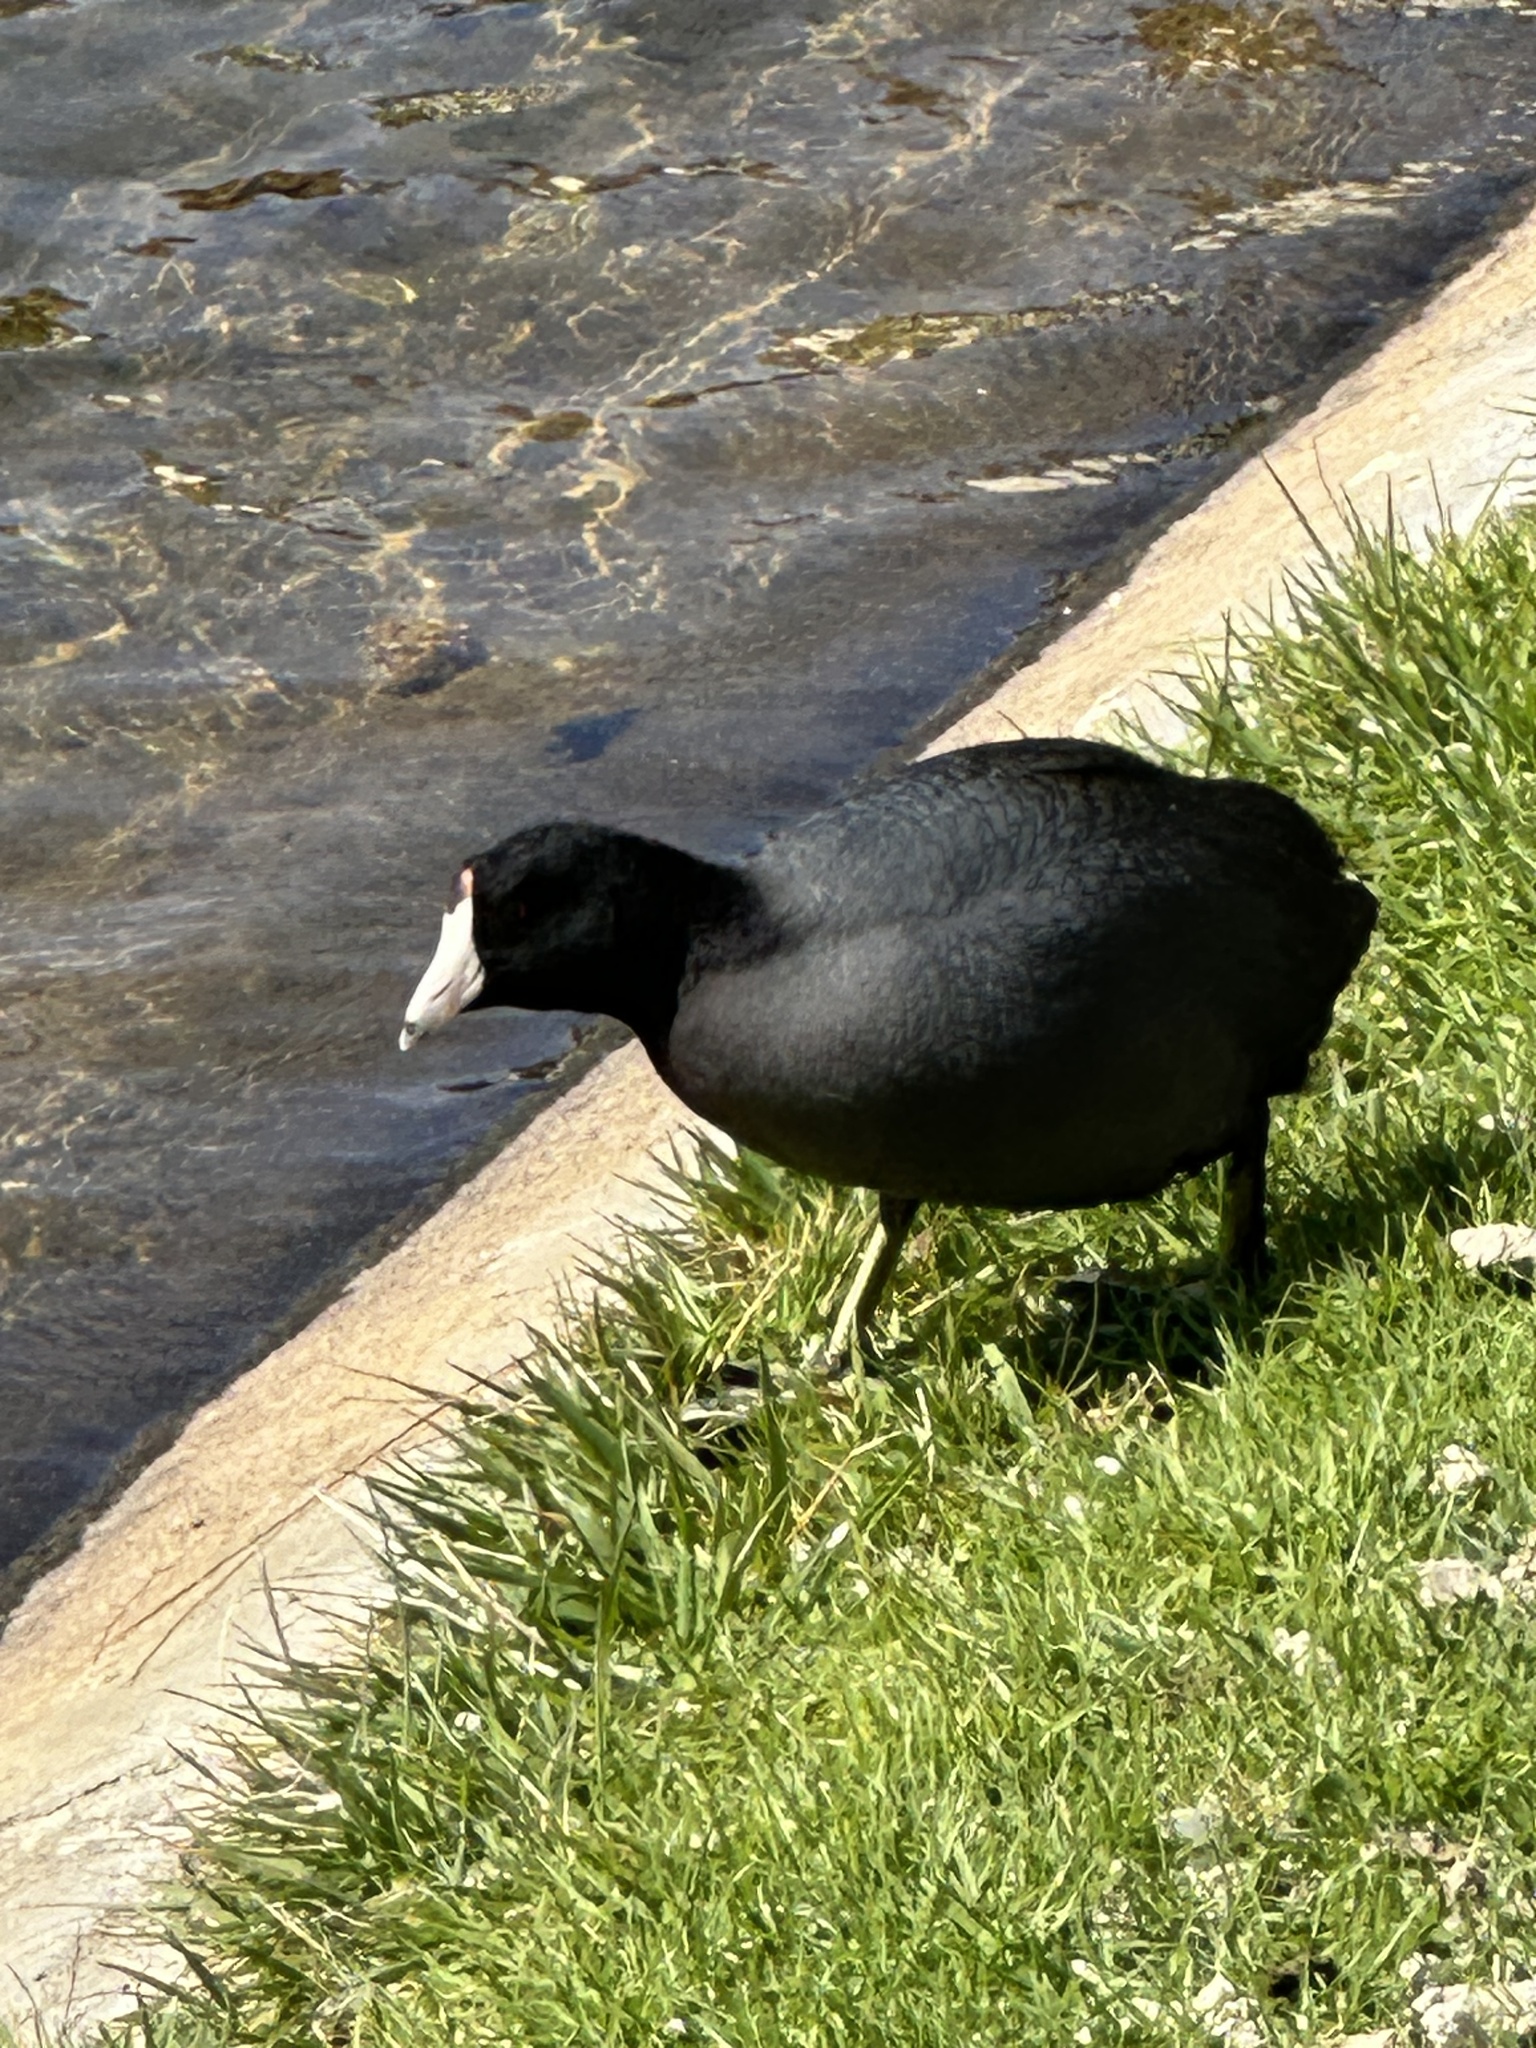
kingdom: Animalia
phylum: Chordata
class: Aves
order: Gruiformes
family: Rallidae
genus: Fulica
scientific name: Fulica americana
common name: American coot
